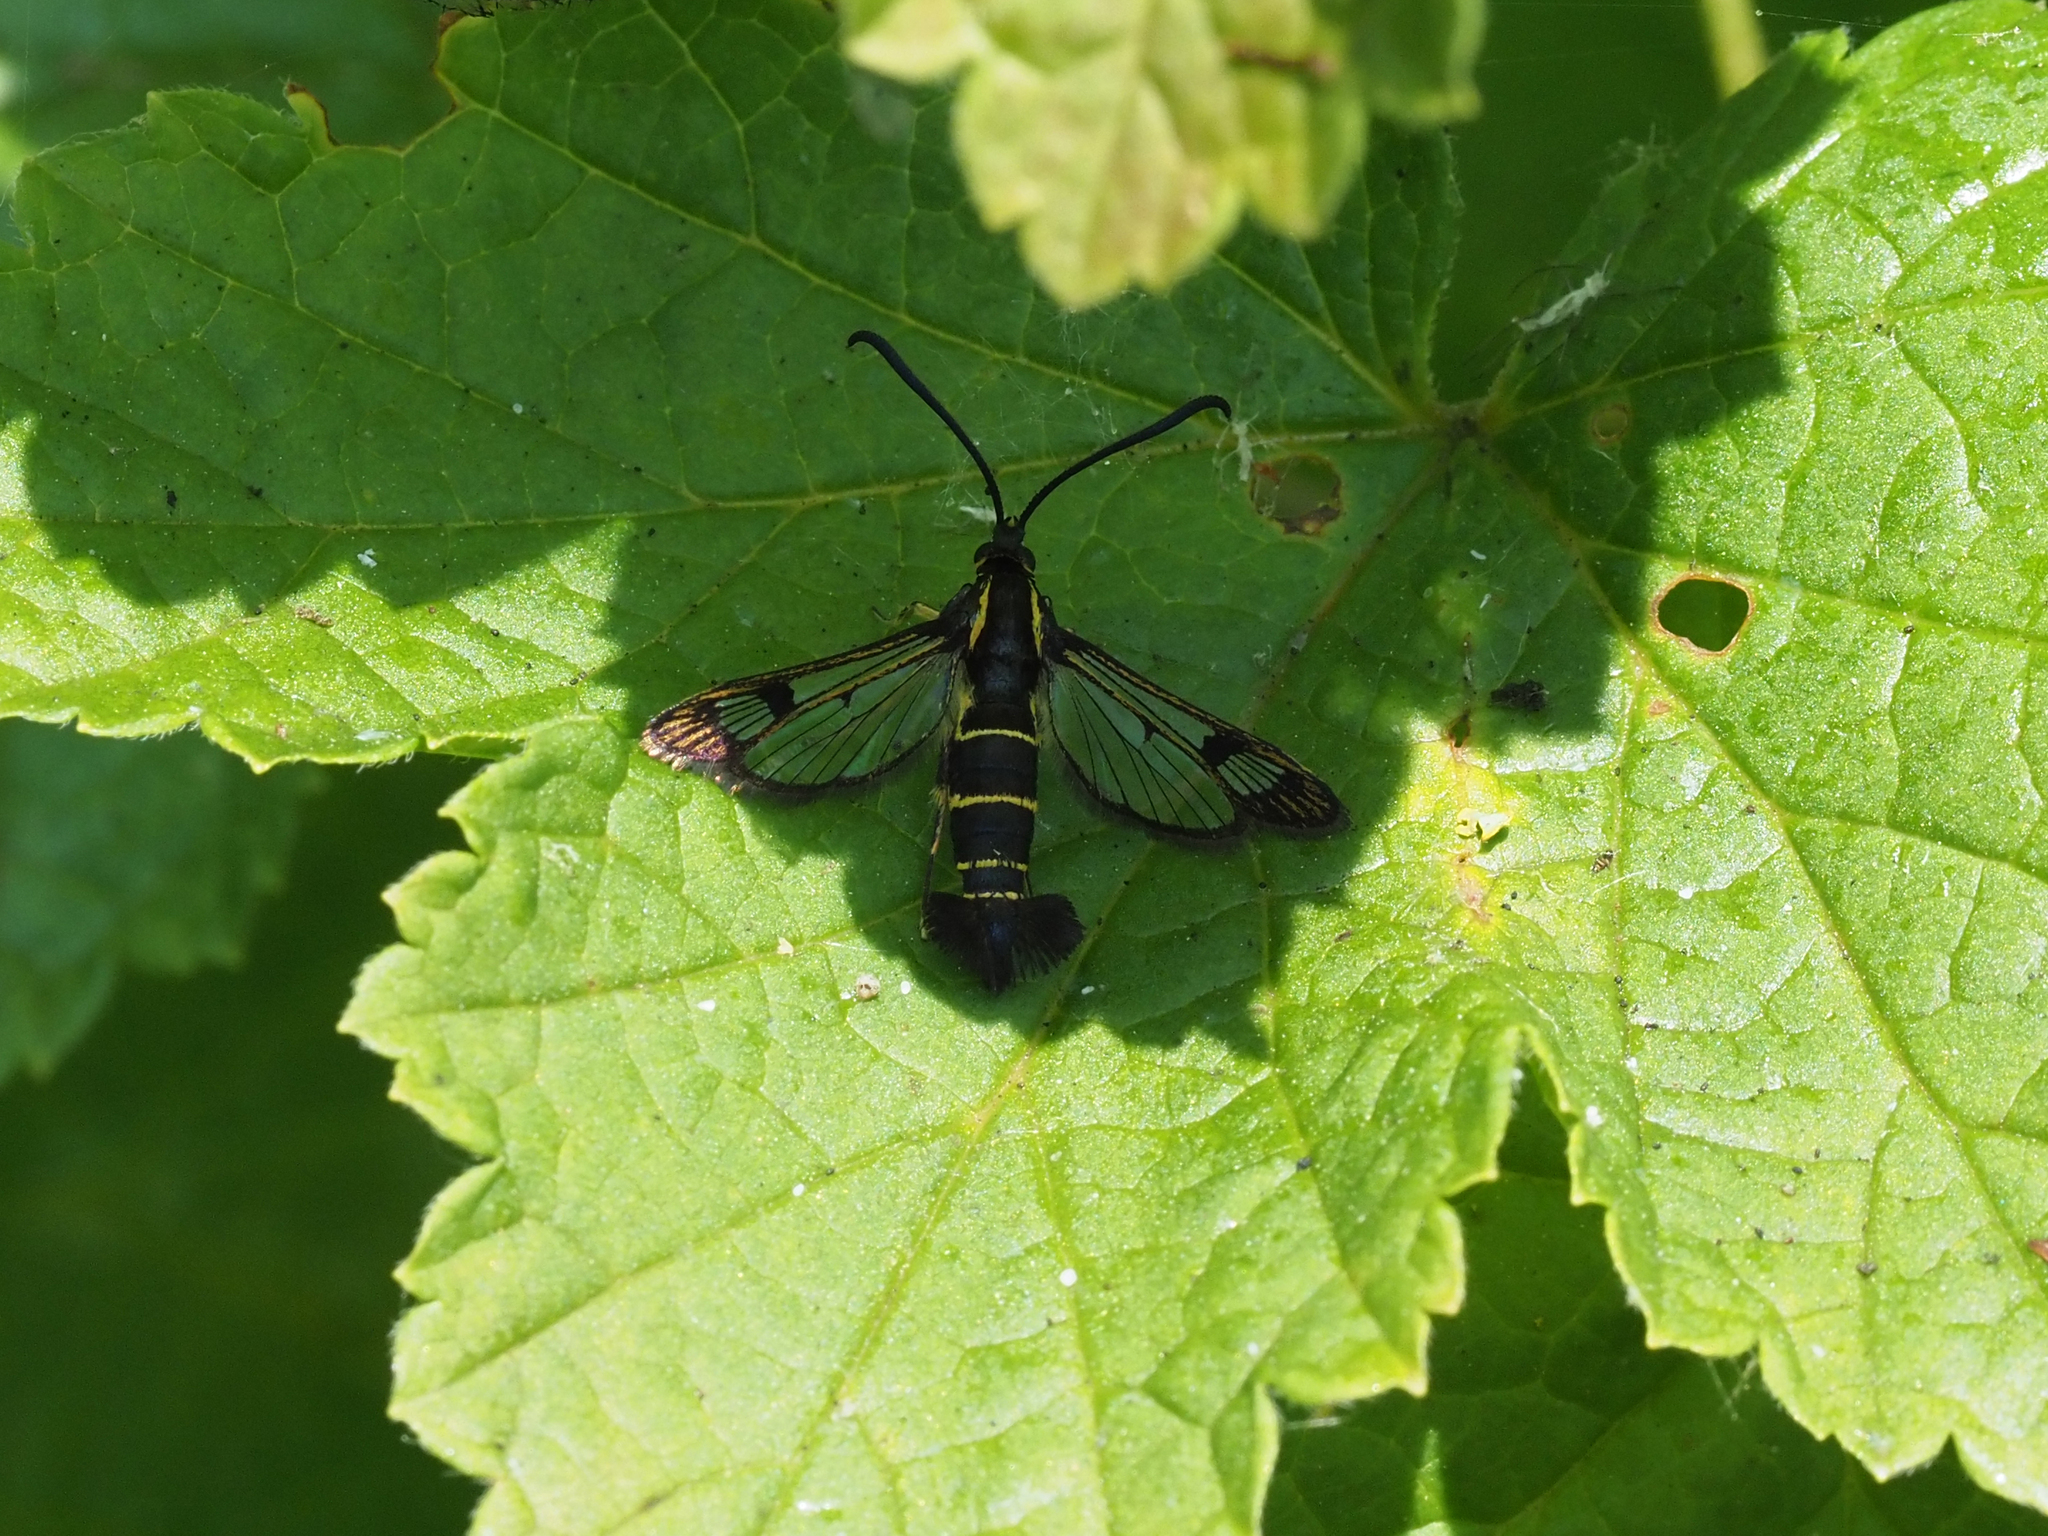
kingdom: Animalia
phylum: Arthropoda
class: Insecta
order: Lepidoptera
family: Sesiidae
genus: Synanthedon
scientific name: Synanthedon tipuliformis
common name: Currant clearwing
